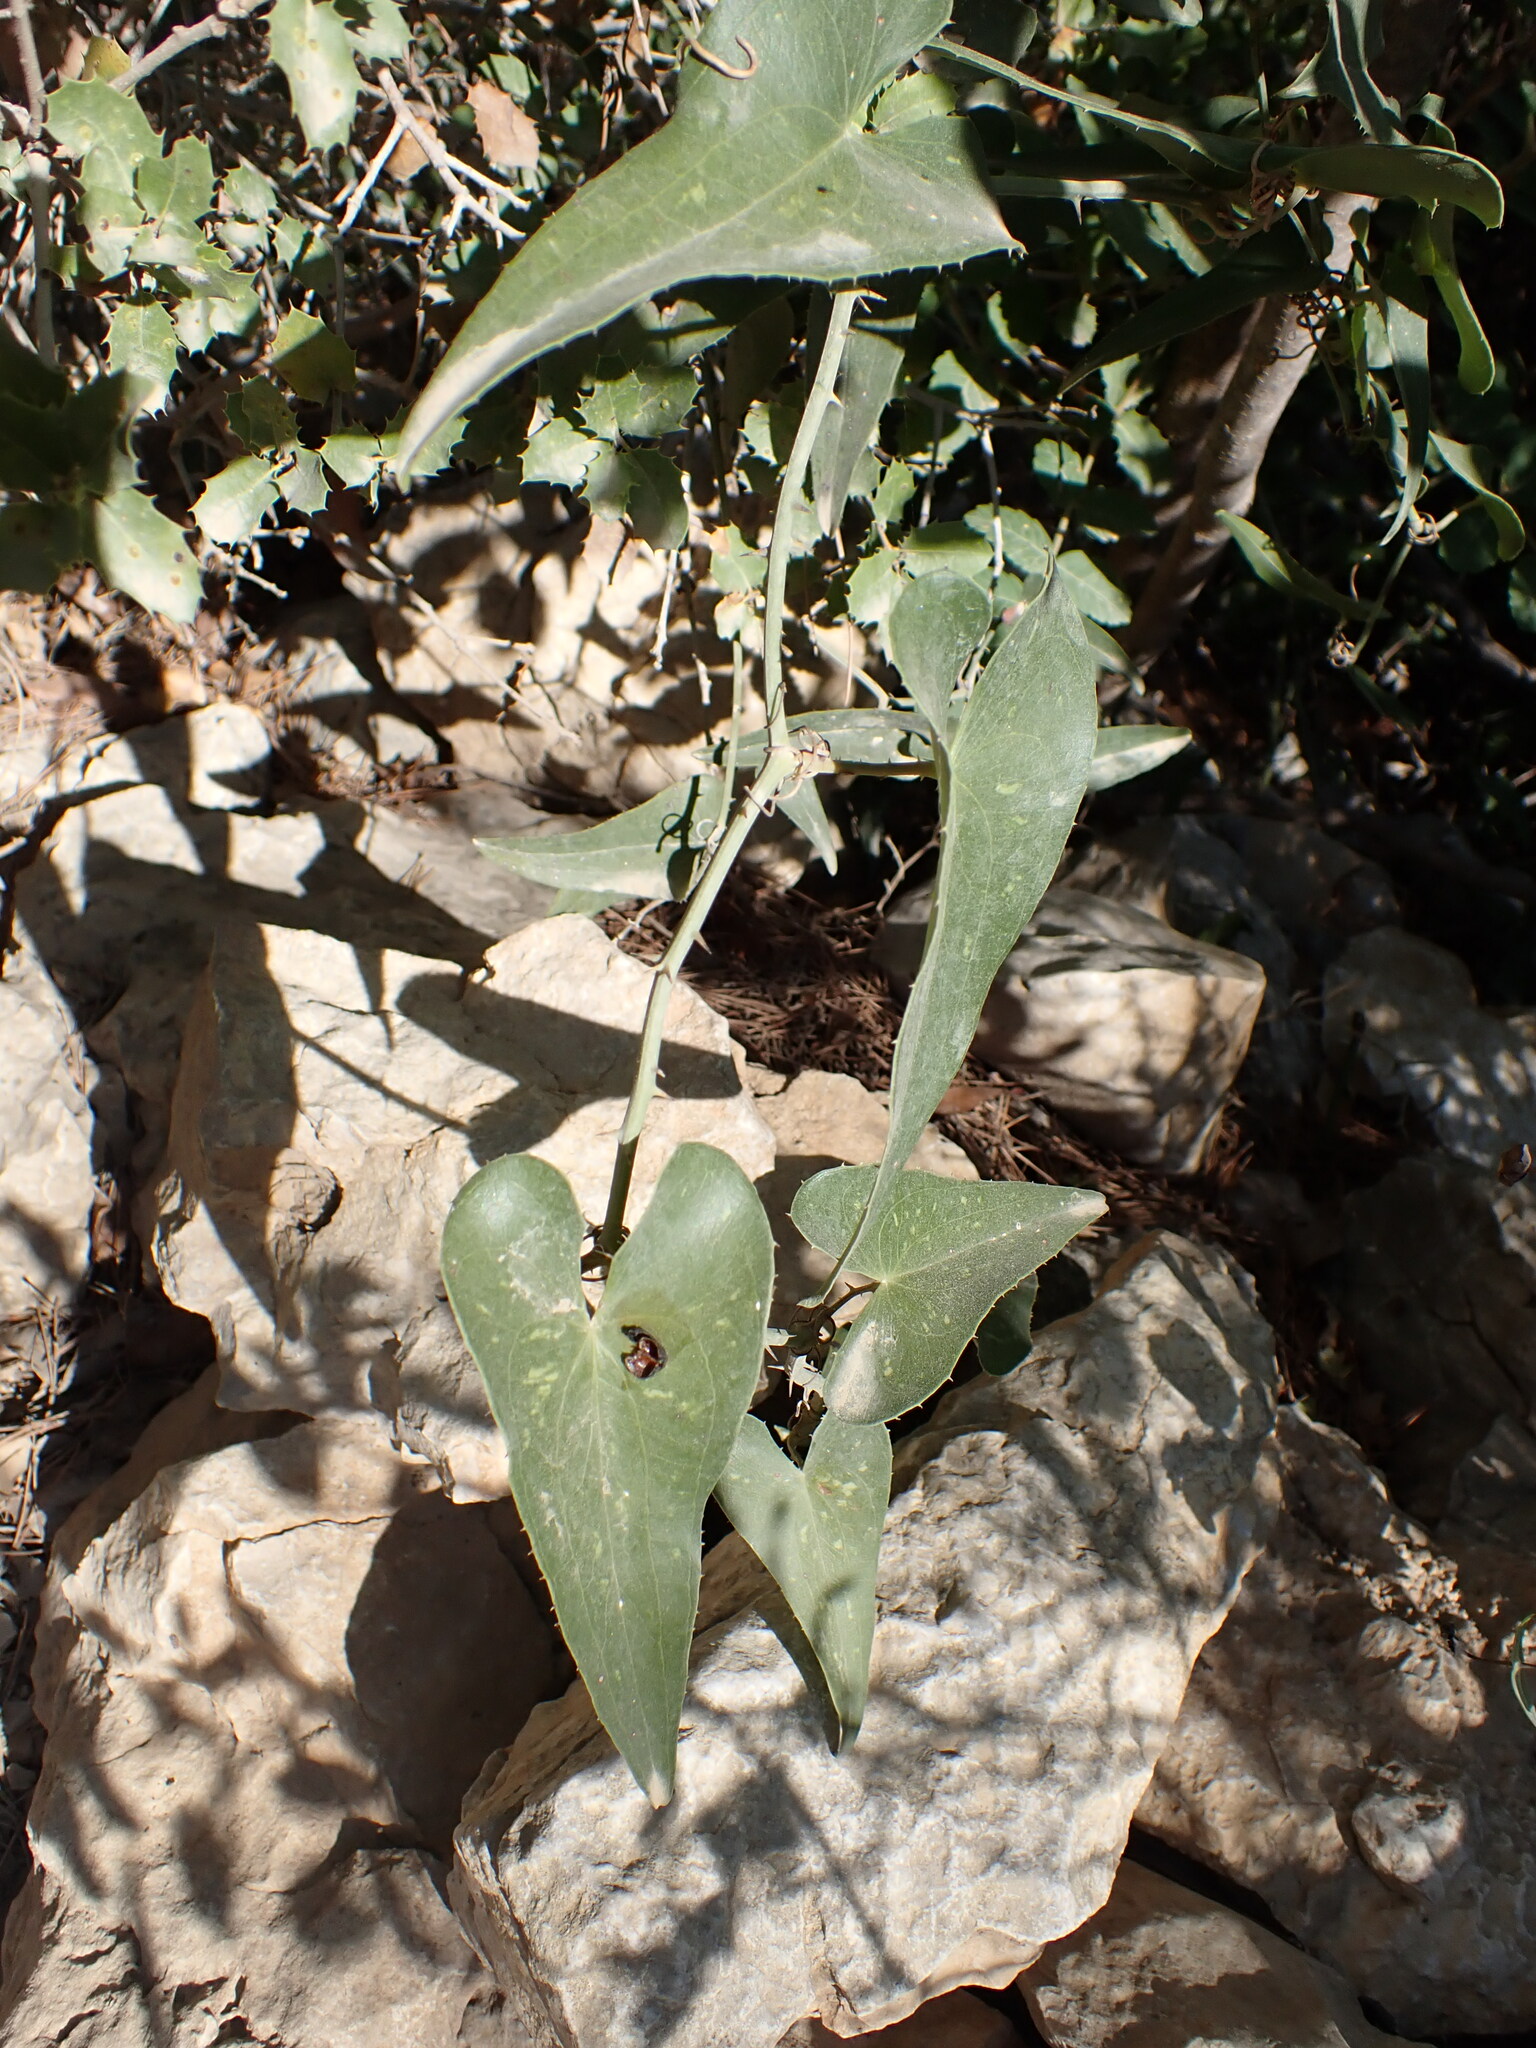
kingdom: Plantae
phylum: Tracheophyta
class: Liliopsida
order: Liliales
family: Smilacaceae
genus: Smilax
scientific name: Smilax aspera
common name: Common smilax
